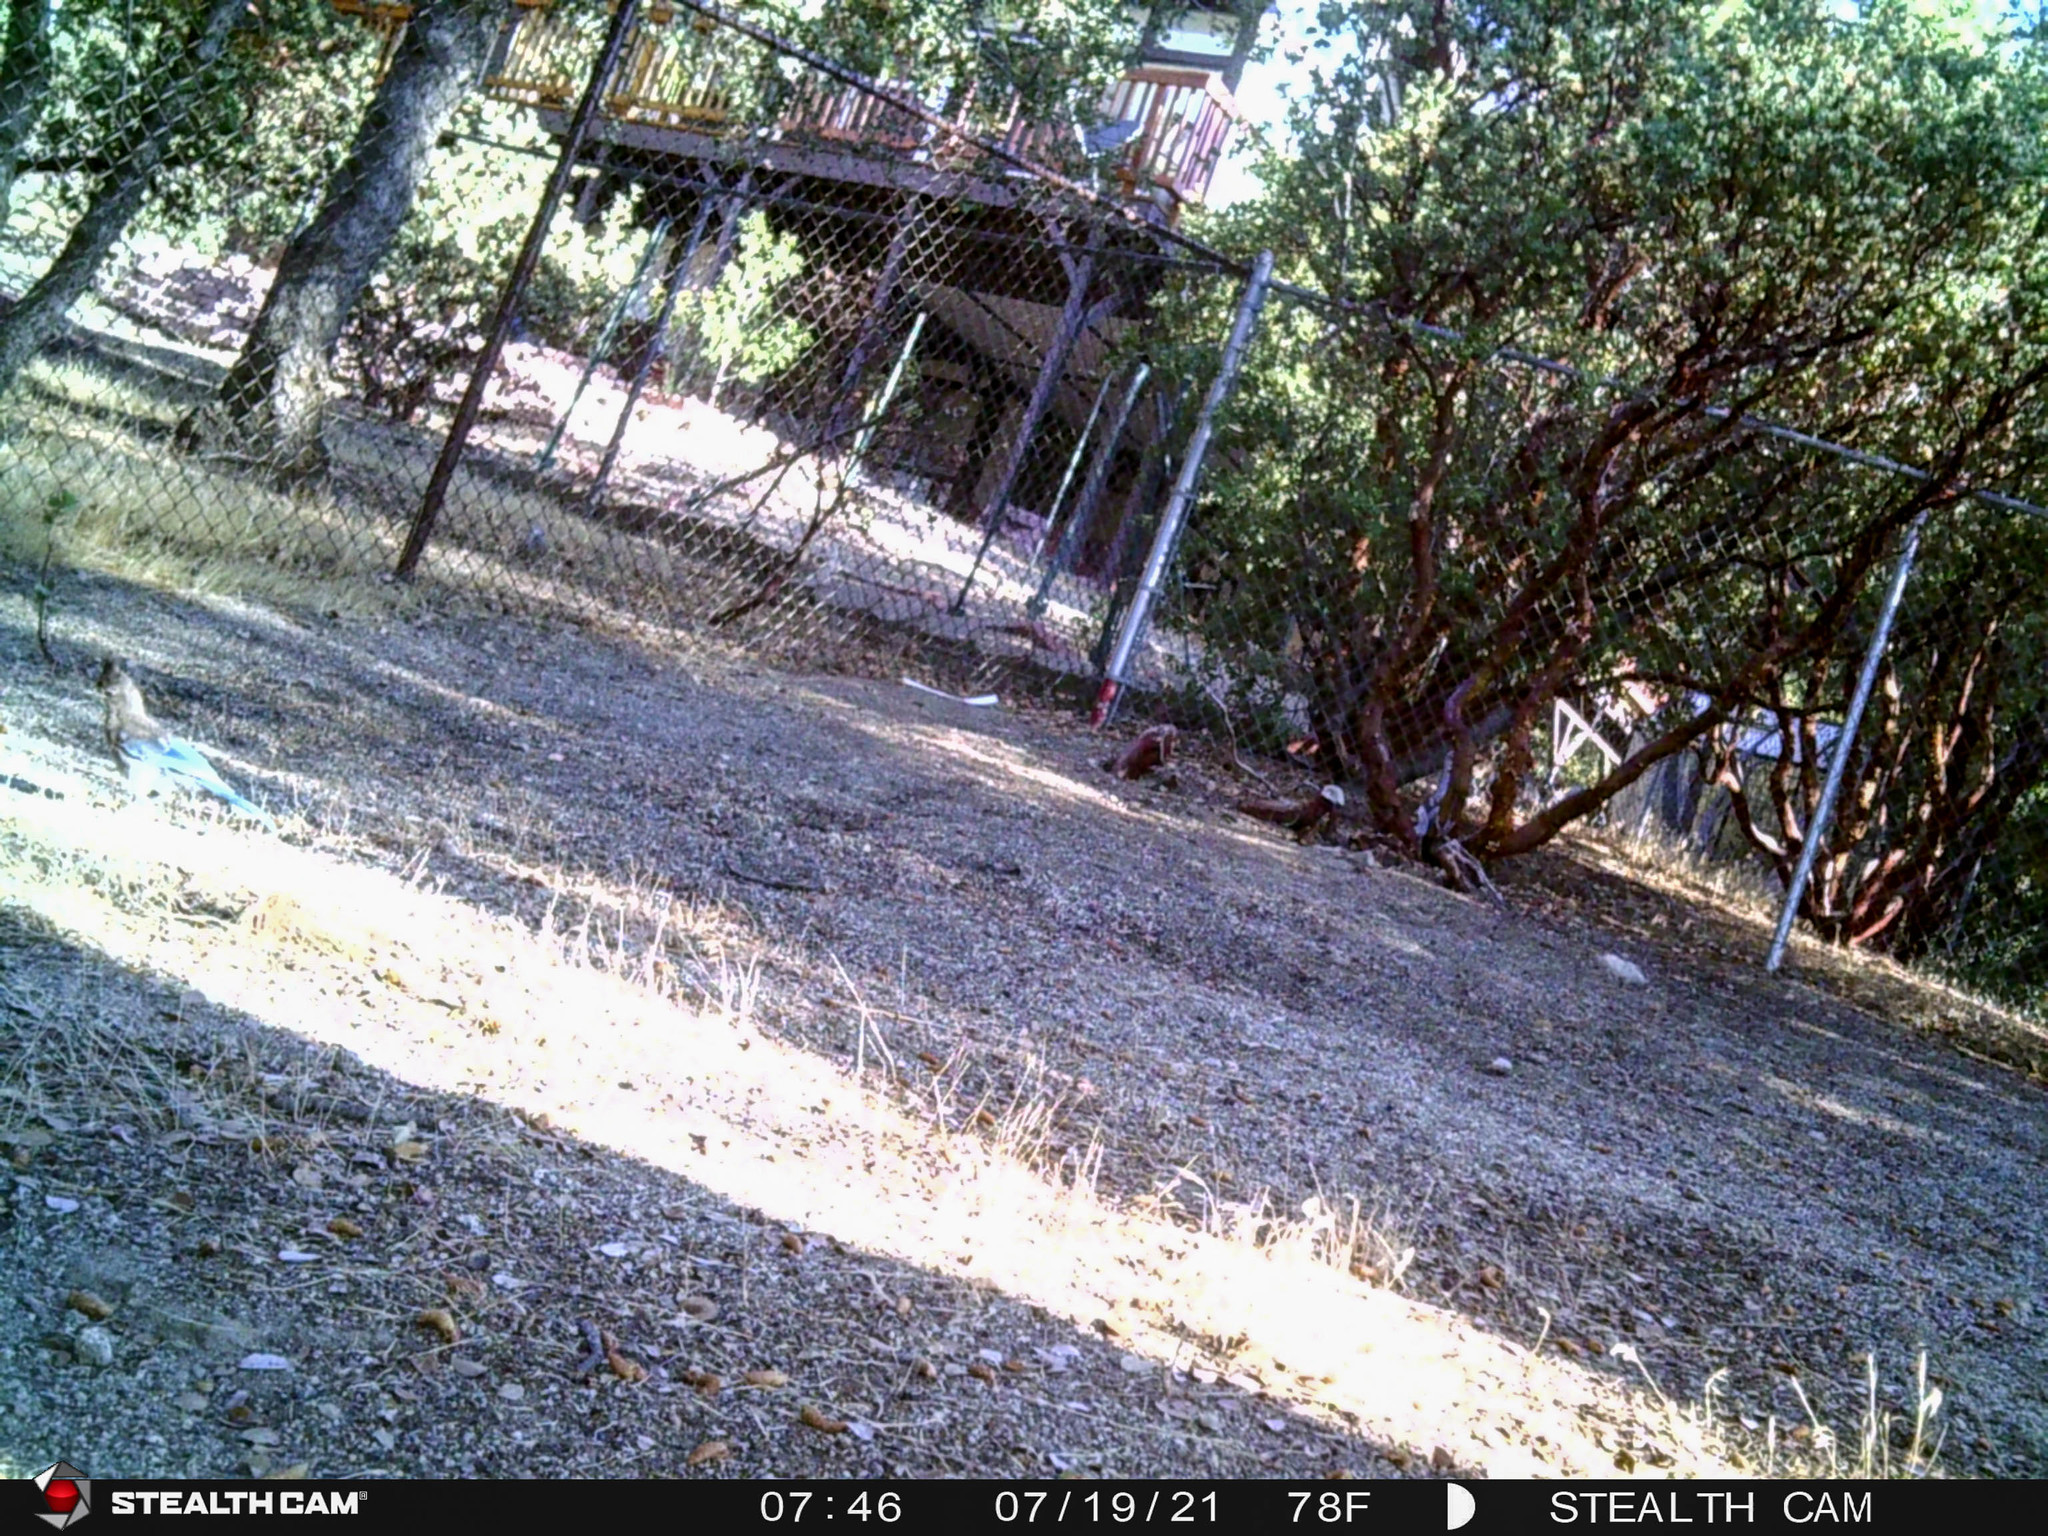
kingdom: Animalia
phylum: Chordata
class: Aves
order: Passeriformes
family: Corvidae
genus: Cyanocitta
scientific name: Cyanocitta stelleri
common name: Steller's jay
